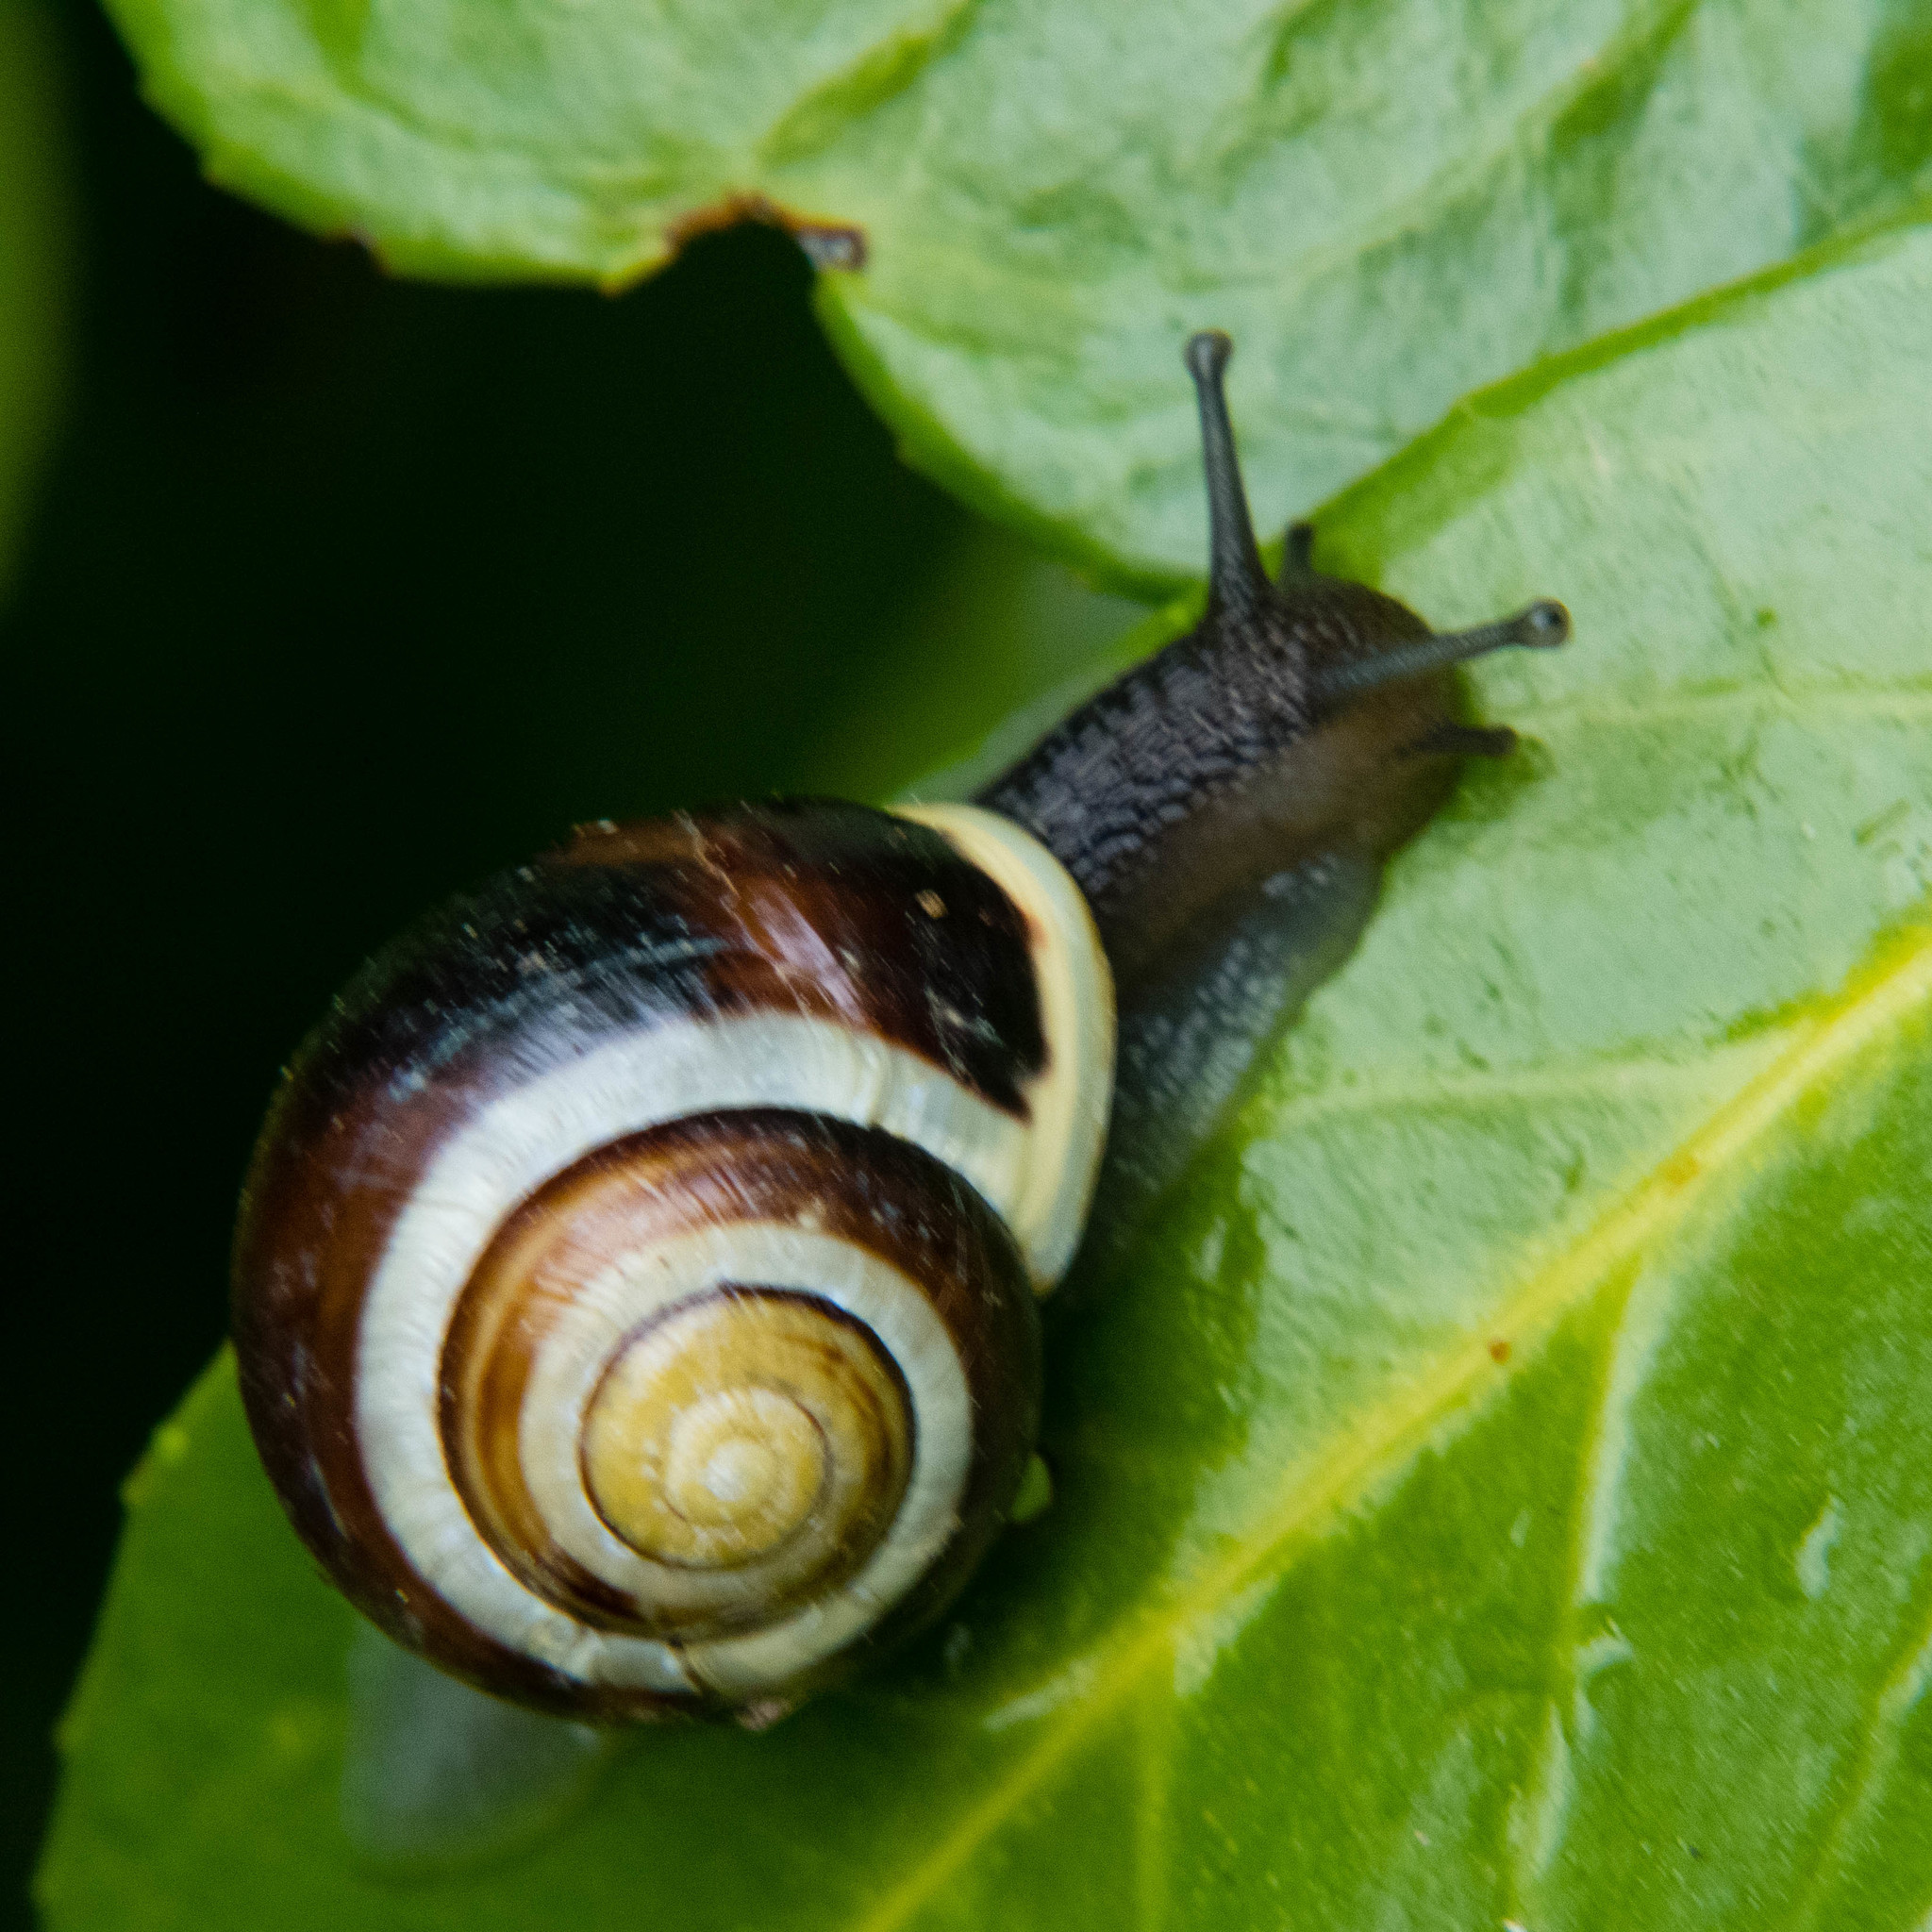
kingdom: Animalia
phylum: Mollusca
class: Gastropoda
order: Stylommatophora
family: Helicidae
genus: Cepaea
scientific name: Cepaea hortensis
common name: White-lip gardensnail
